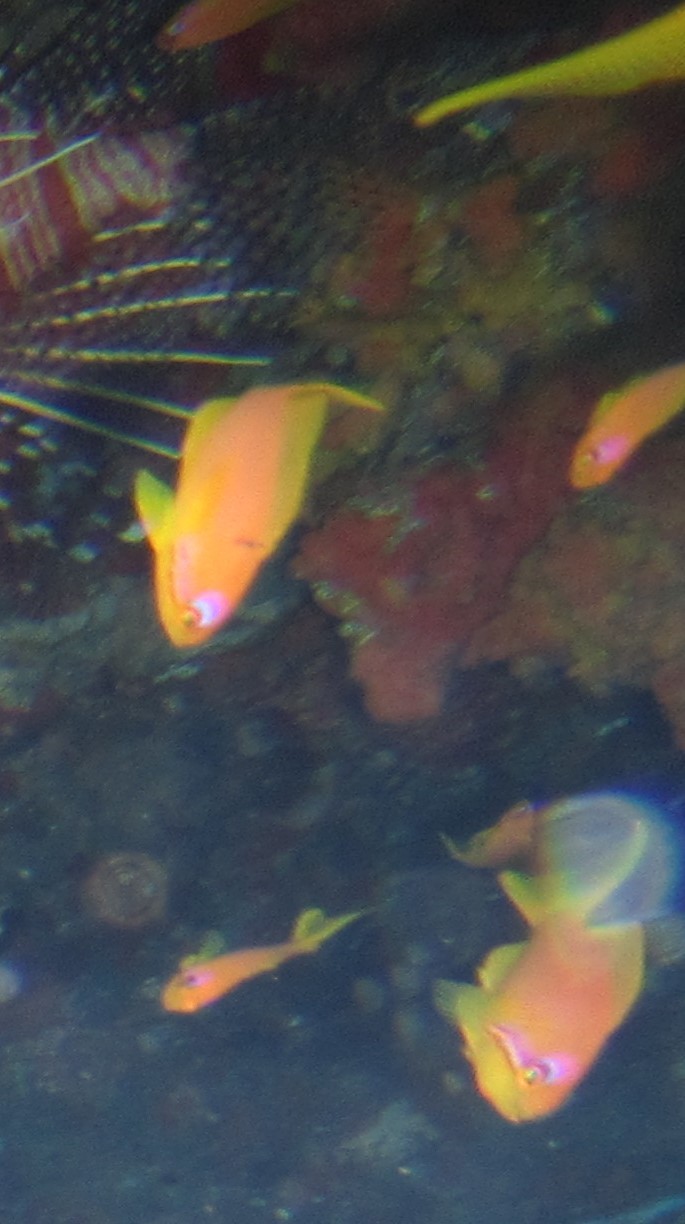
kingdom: Animalia
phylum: Chordata
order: Perciformes
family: Serranidae
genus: Pseudanthias
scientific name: Pseudanthias squamipinnis
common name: Scalefin anthias
